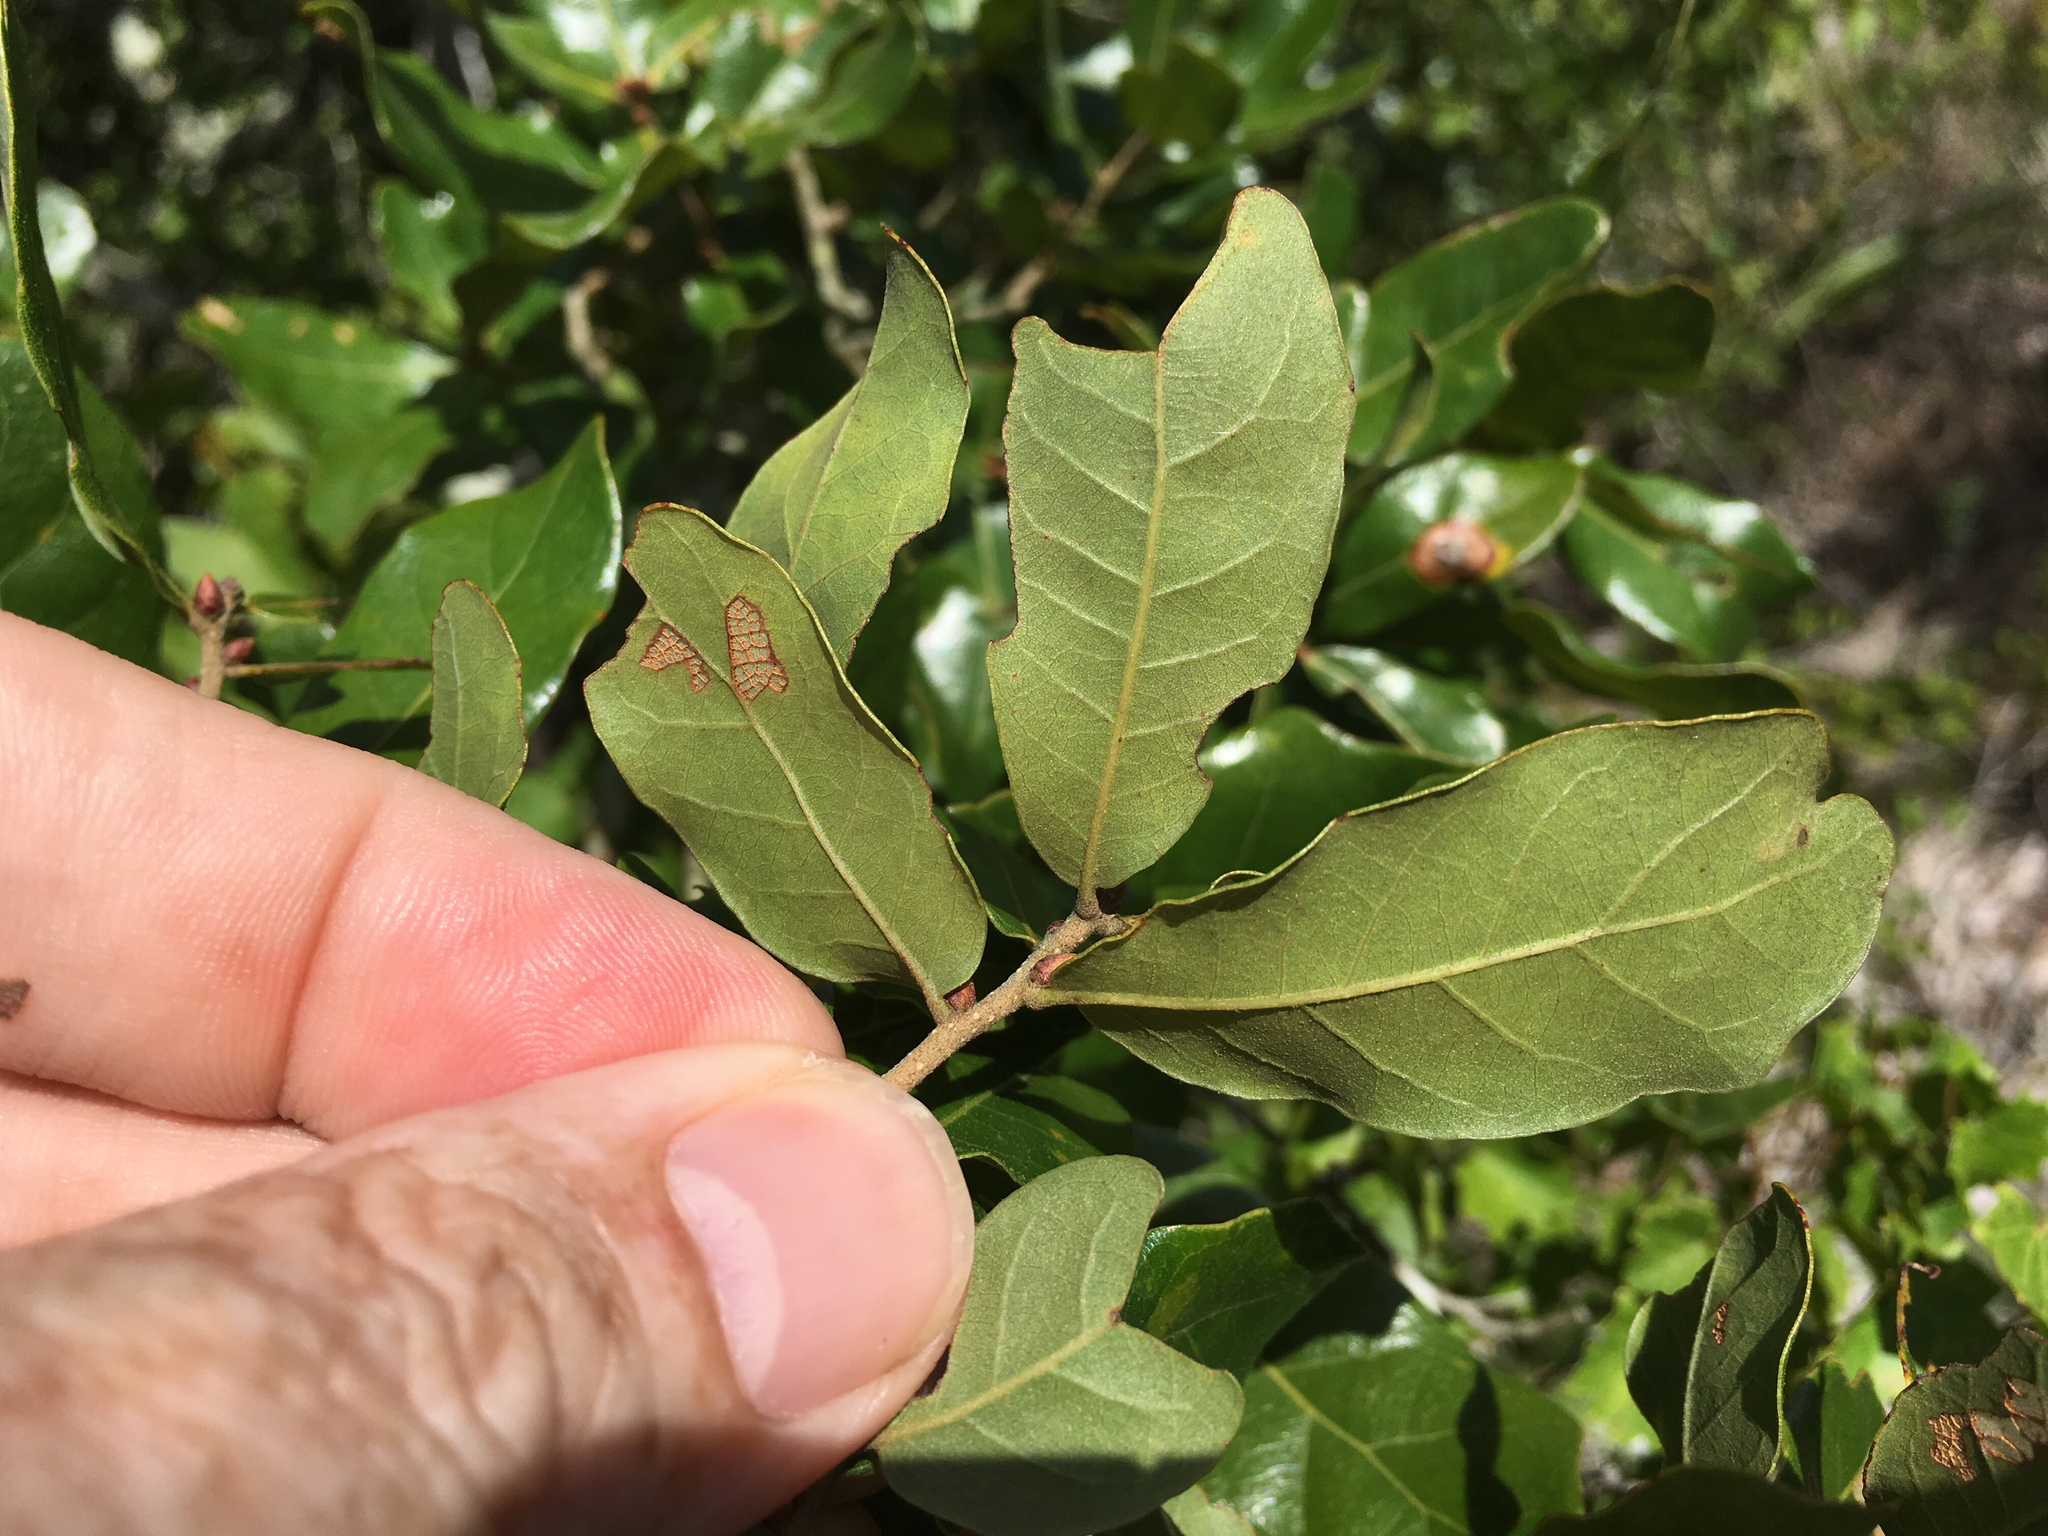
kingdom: Plantae
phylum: Tracheophyta
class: Magnoliopsida
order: Fagales
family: Fagaceae
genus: Quercus
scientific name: Quercus chapmanii
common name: Chapman oak
